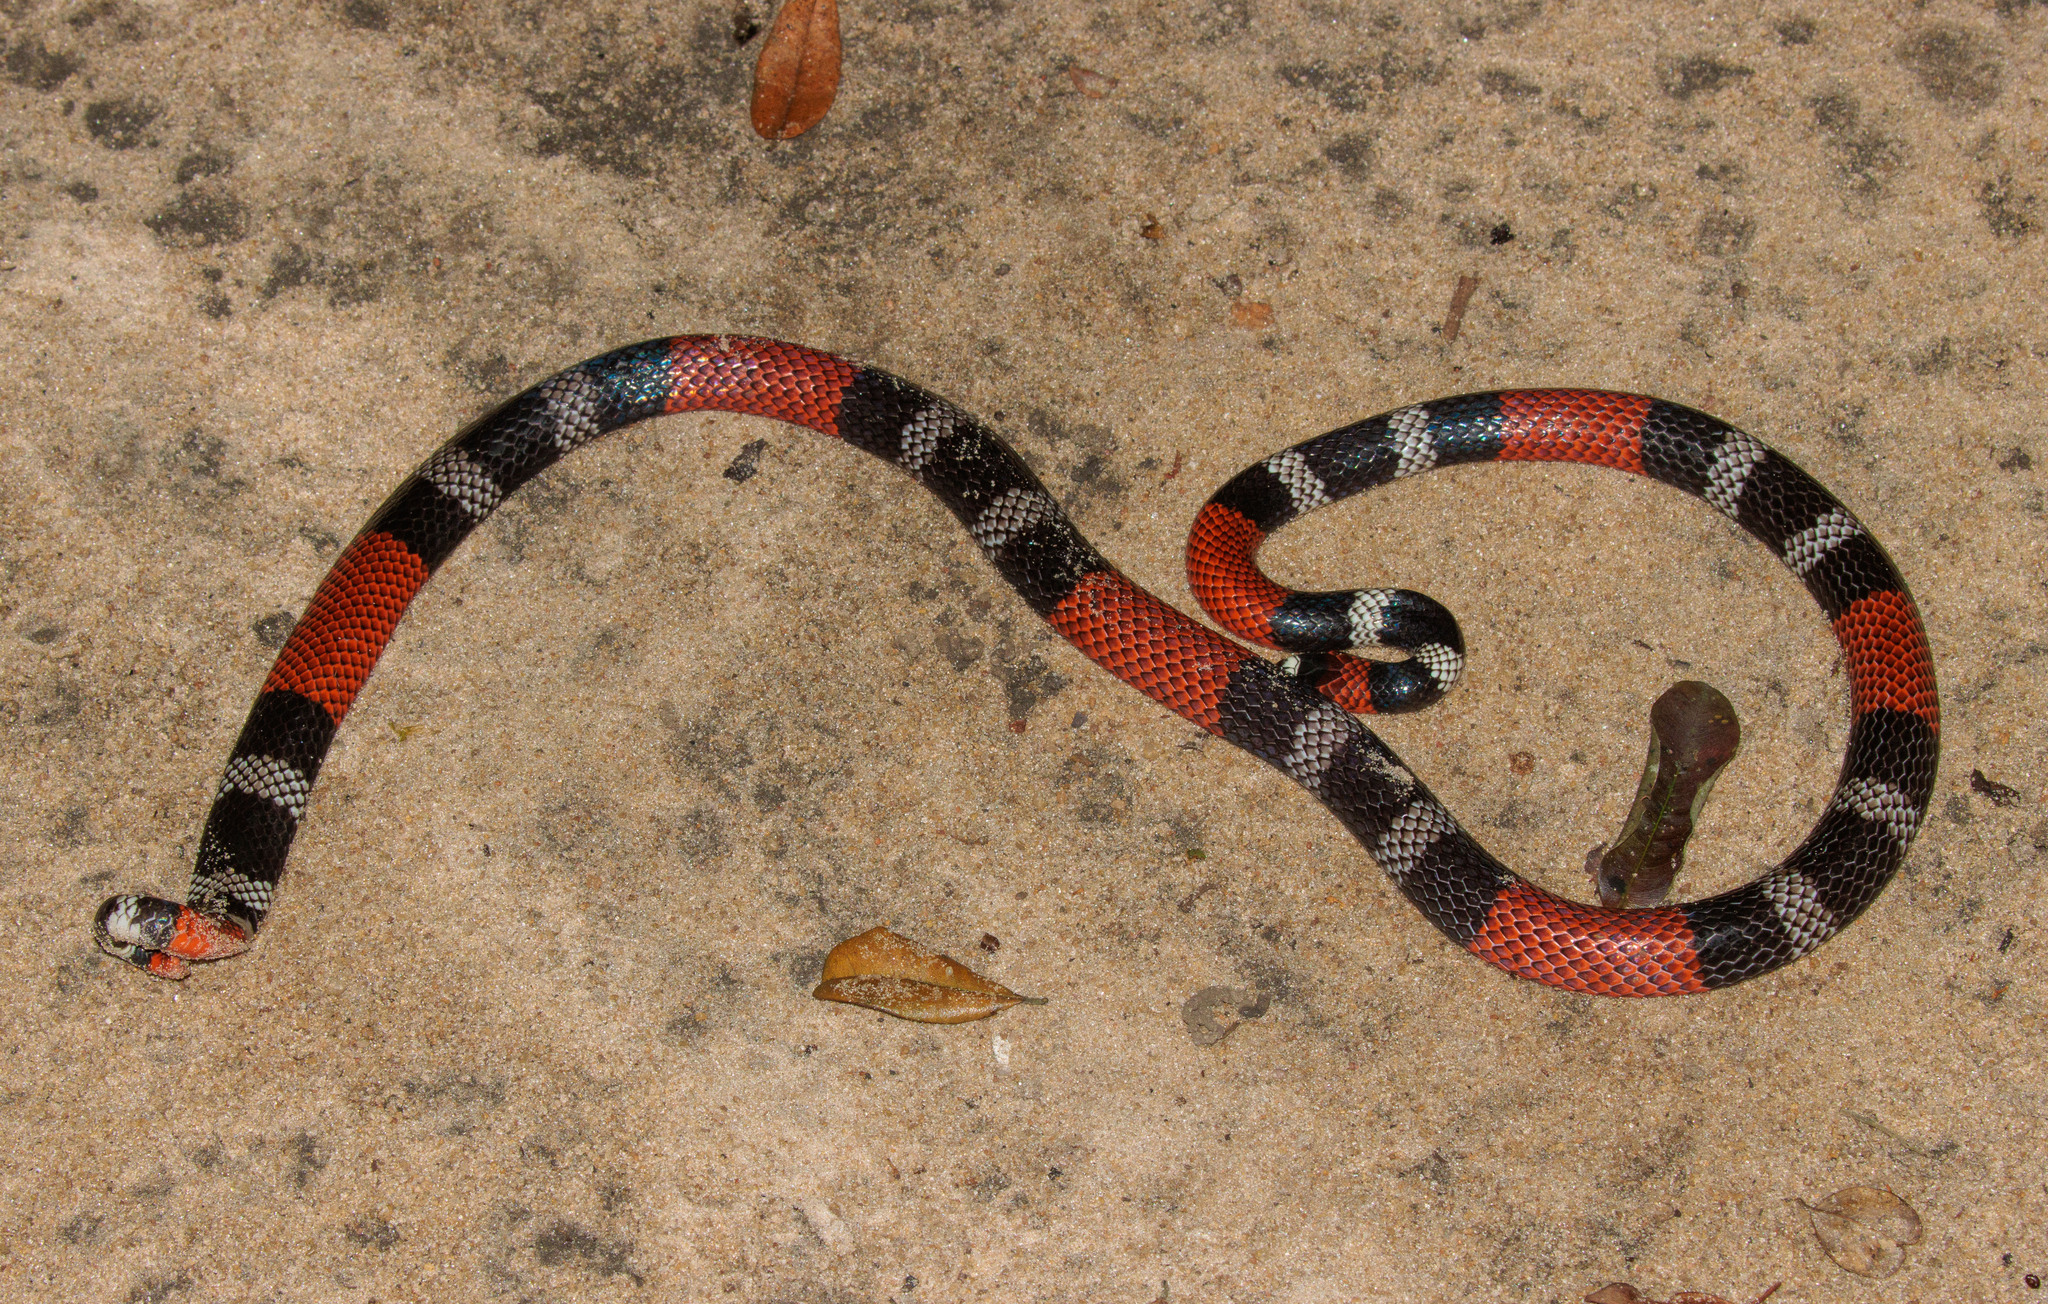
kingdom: Animalia
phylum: Chordata
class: Squamata
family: Elapidae
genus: Micrurus
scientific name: Micrurus potyguara
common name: Potyguara coral snake
